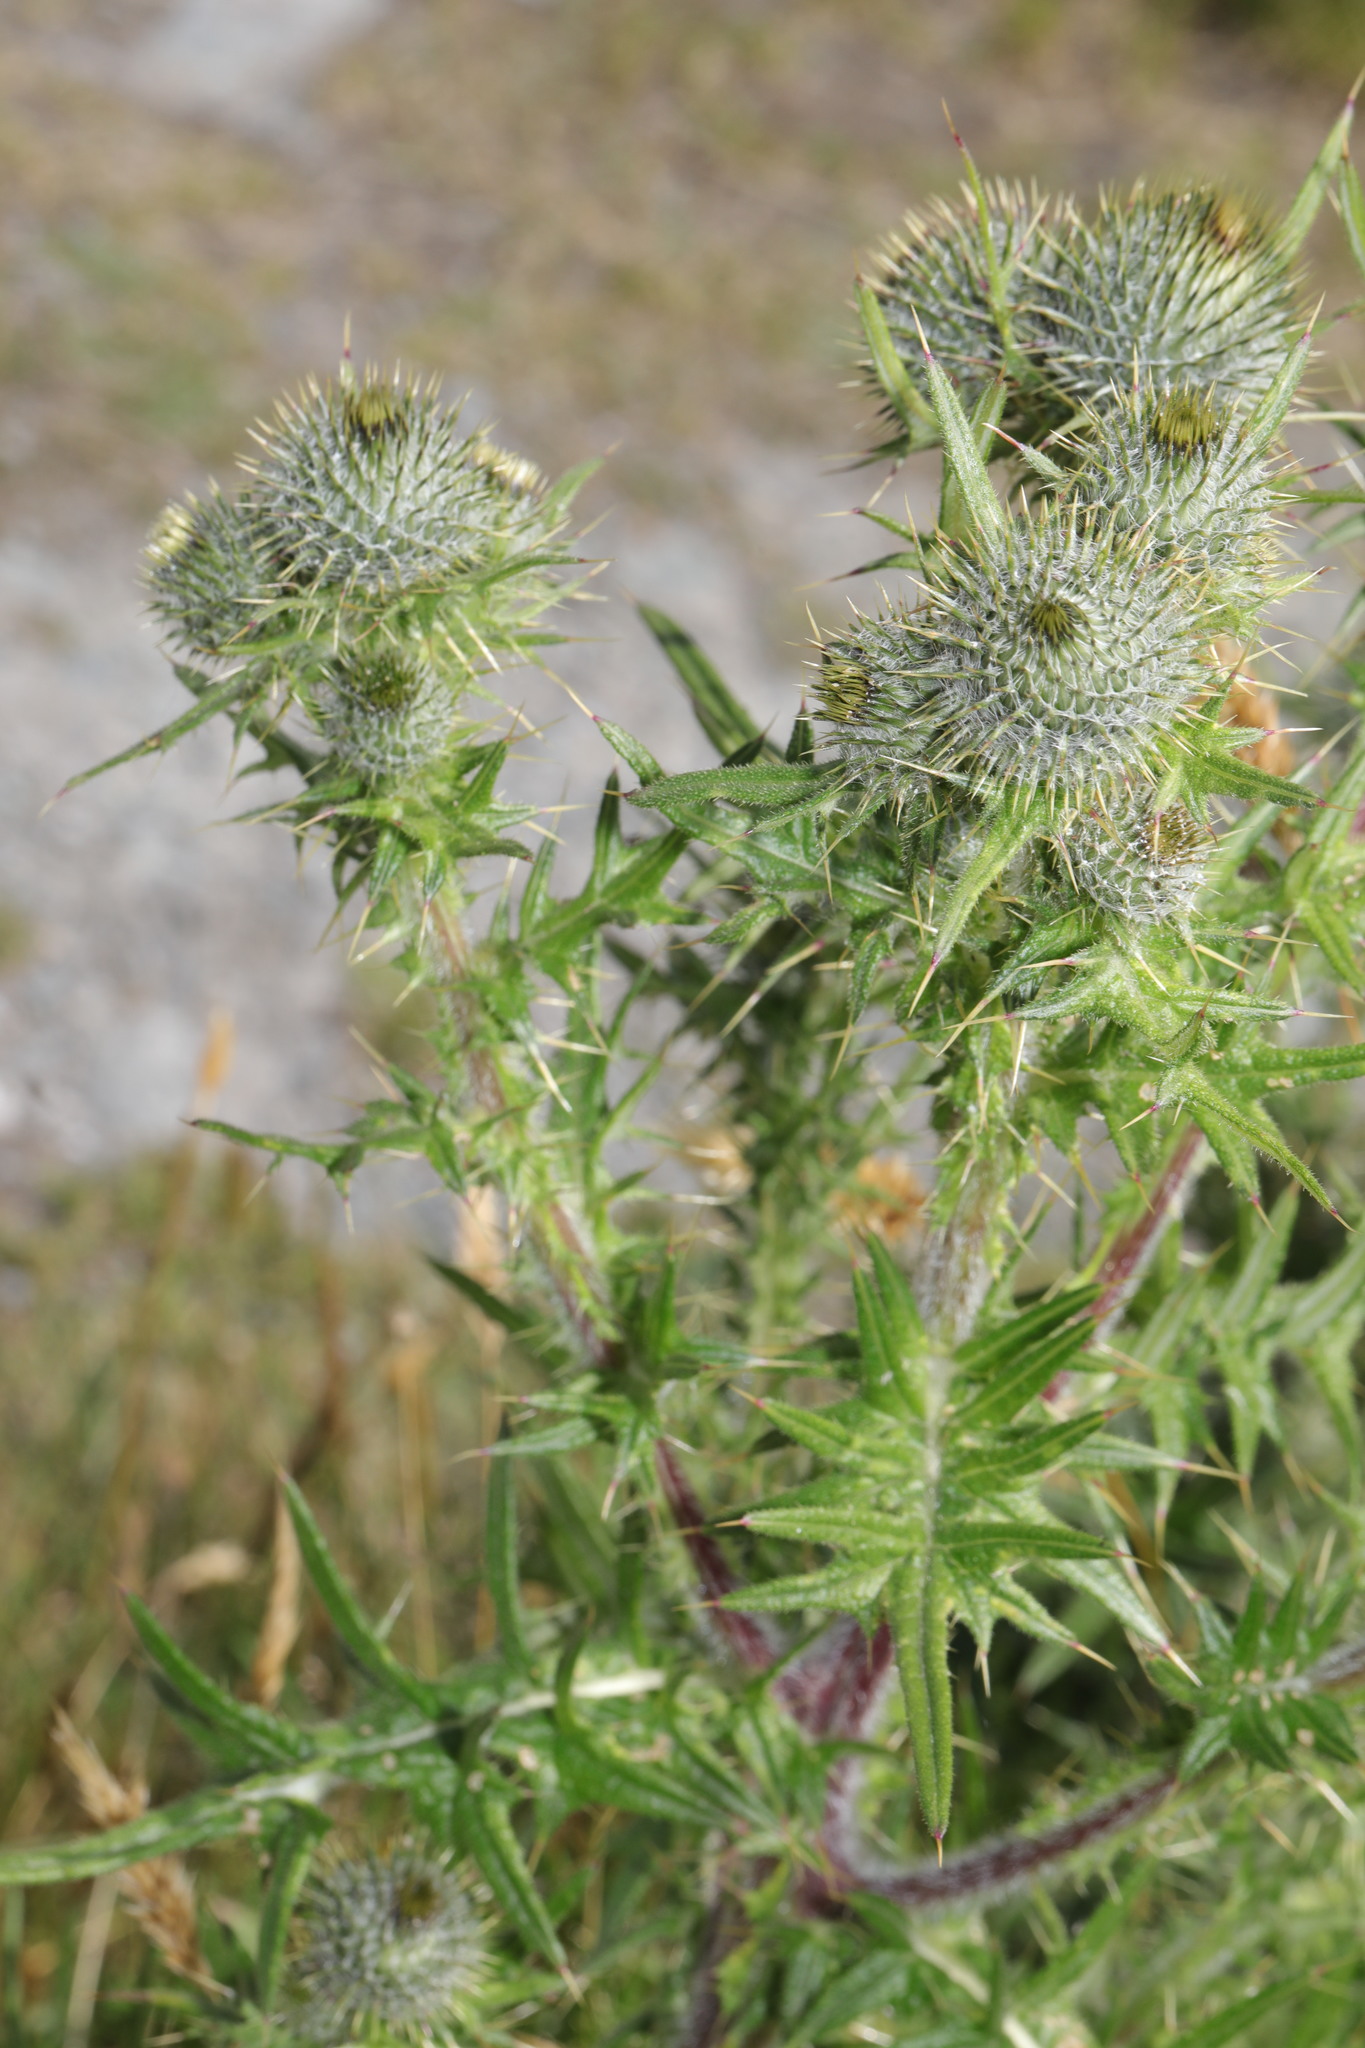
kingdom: Plantae
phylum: Tracheophyta
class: Magnoliopsida
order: Asterales
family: Asteraceae
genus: Cirsium
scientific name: Cirsium vulgare
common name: Bull thistle
